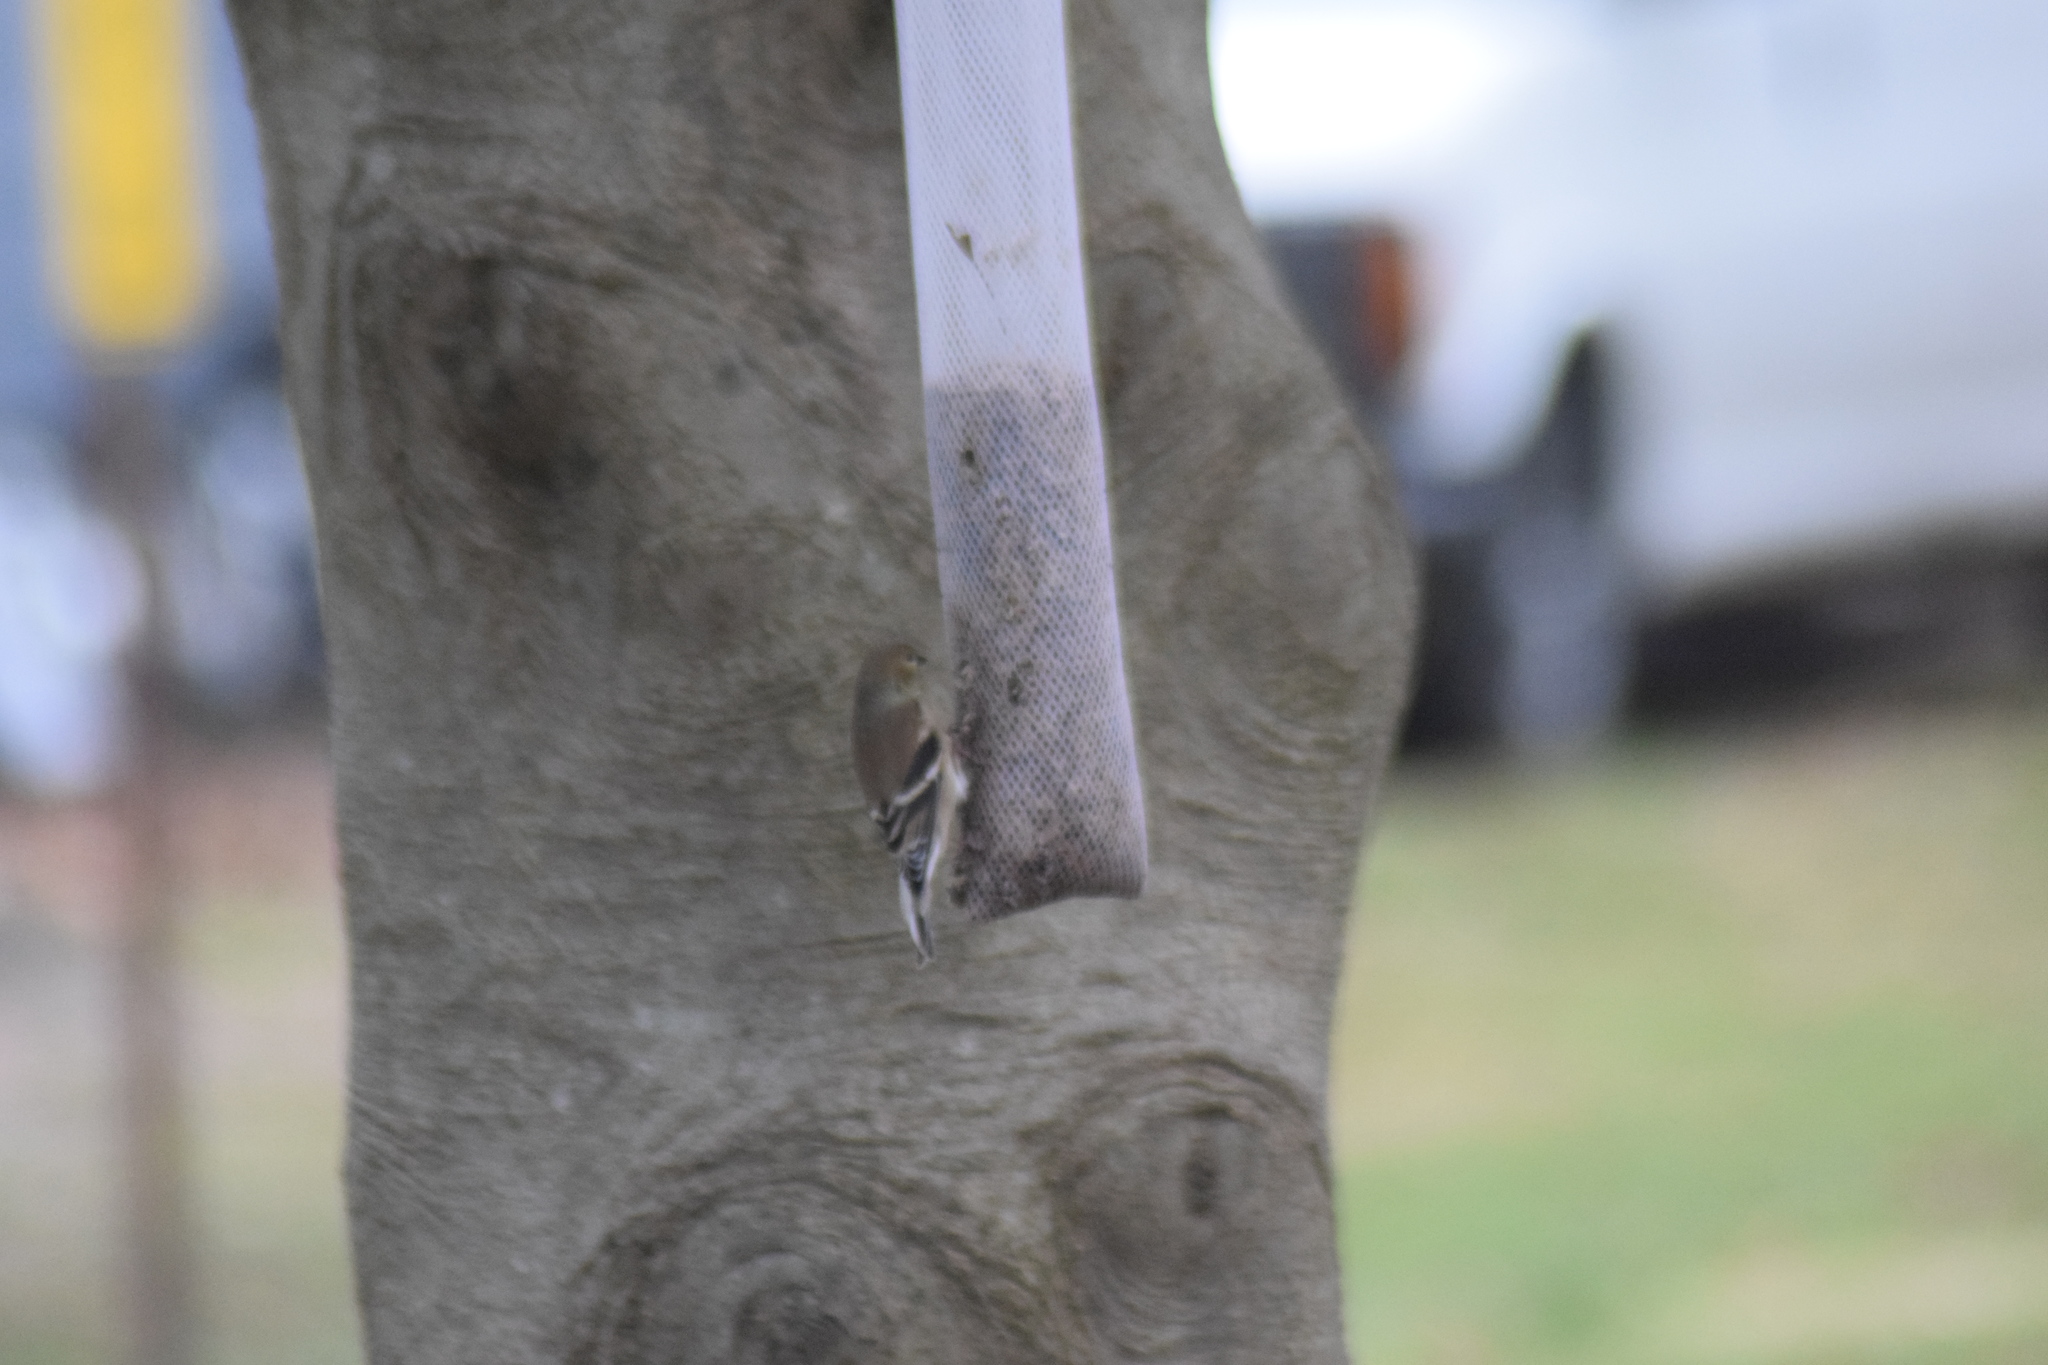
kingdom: Animalia
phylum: Chordata
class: Aves
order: Passeriformes
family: Fringillidae
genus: Spinus
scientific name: Spinus tristis
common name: American goldfinch
